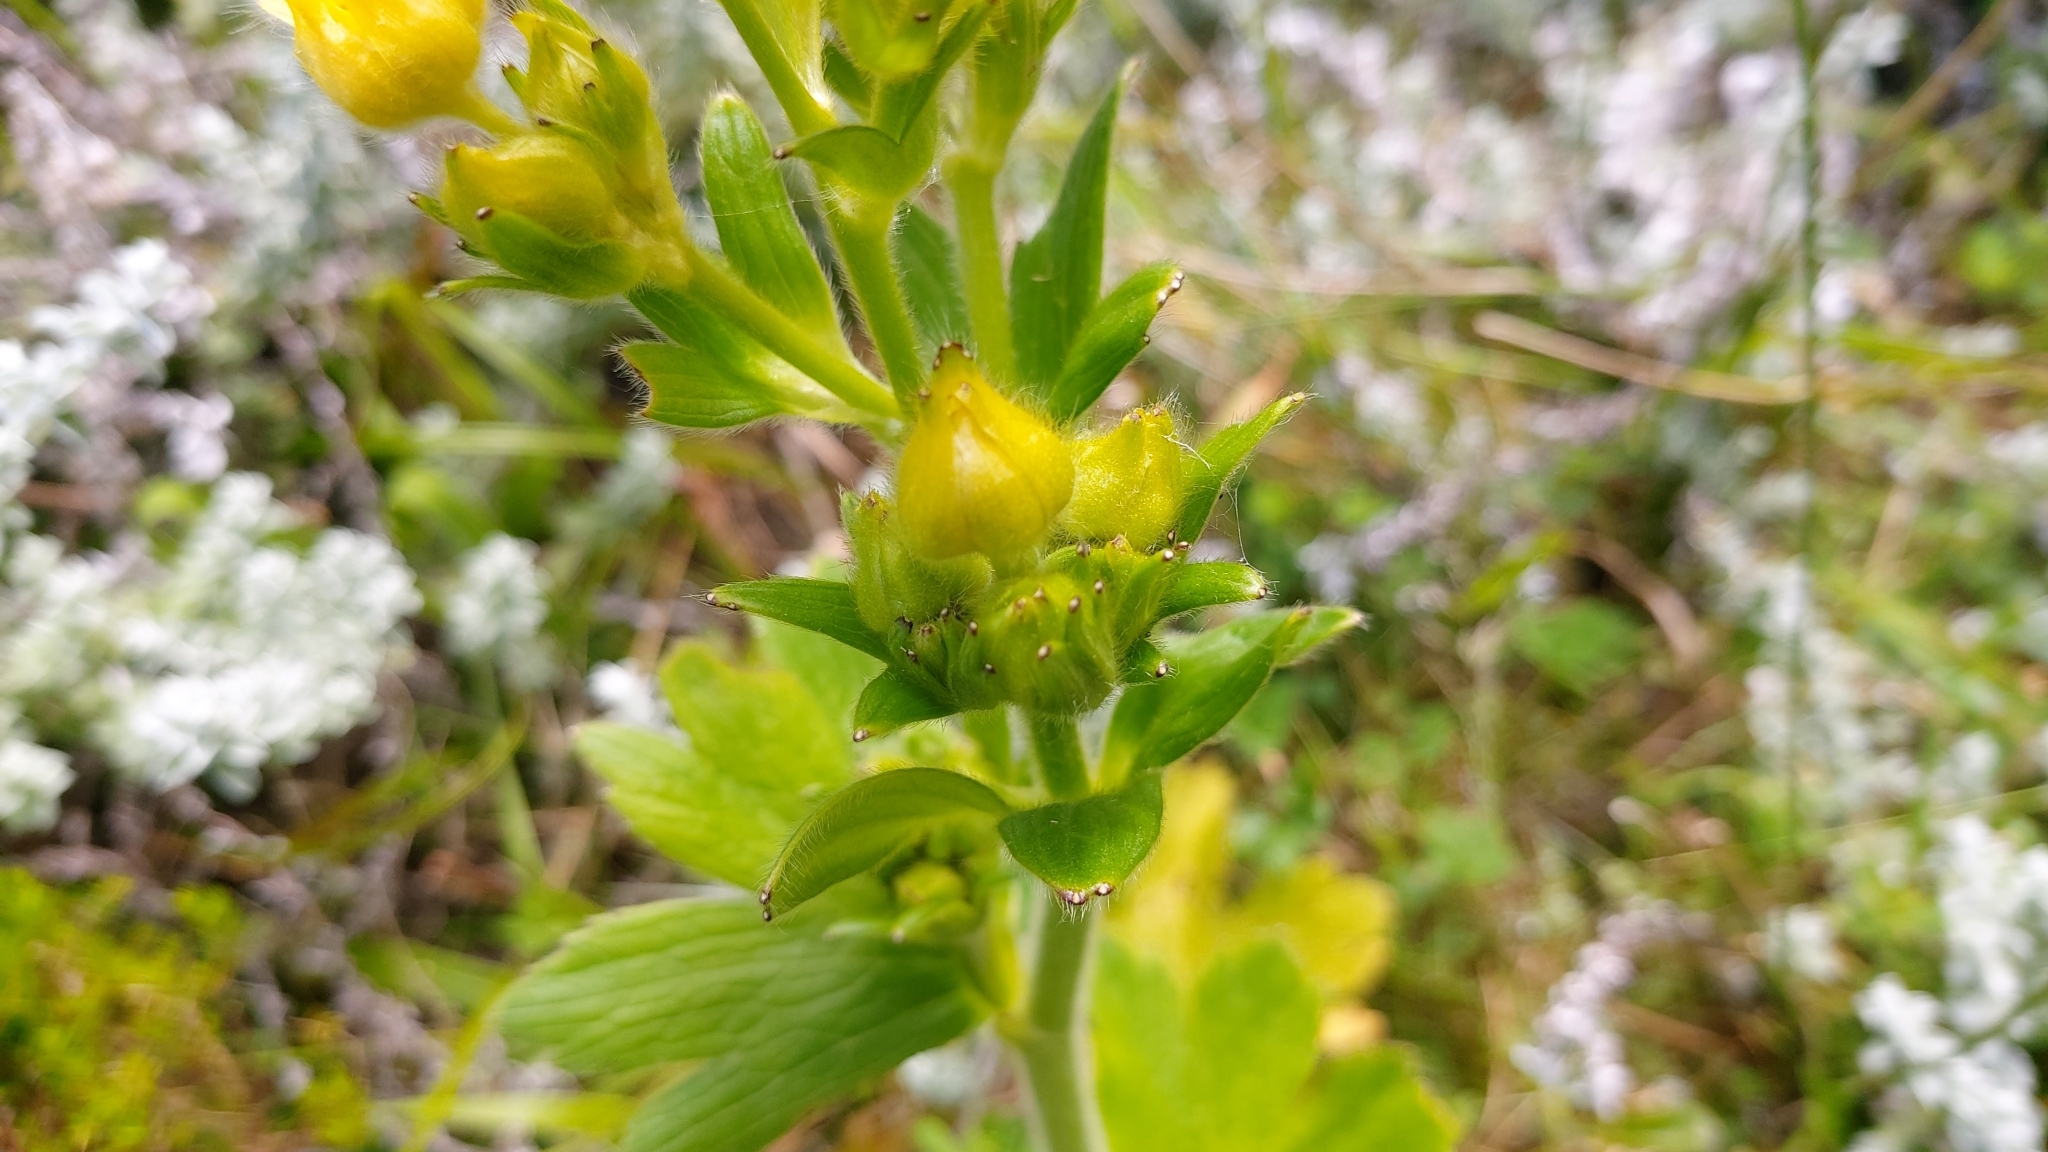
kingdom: Plantae
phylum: Tracheophyta
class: Magnoliopsida
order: Ranunculales
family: Ranunculaceae
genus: Ranunculus
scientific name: Ranunculus cortusifolius
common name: Azores buttercup
